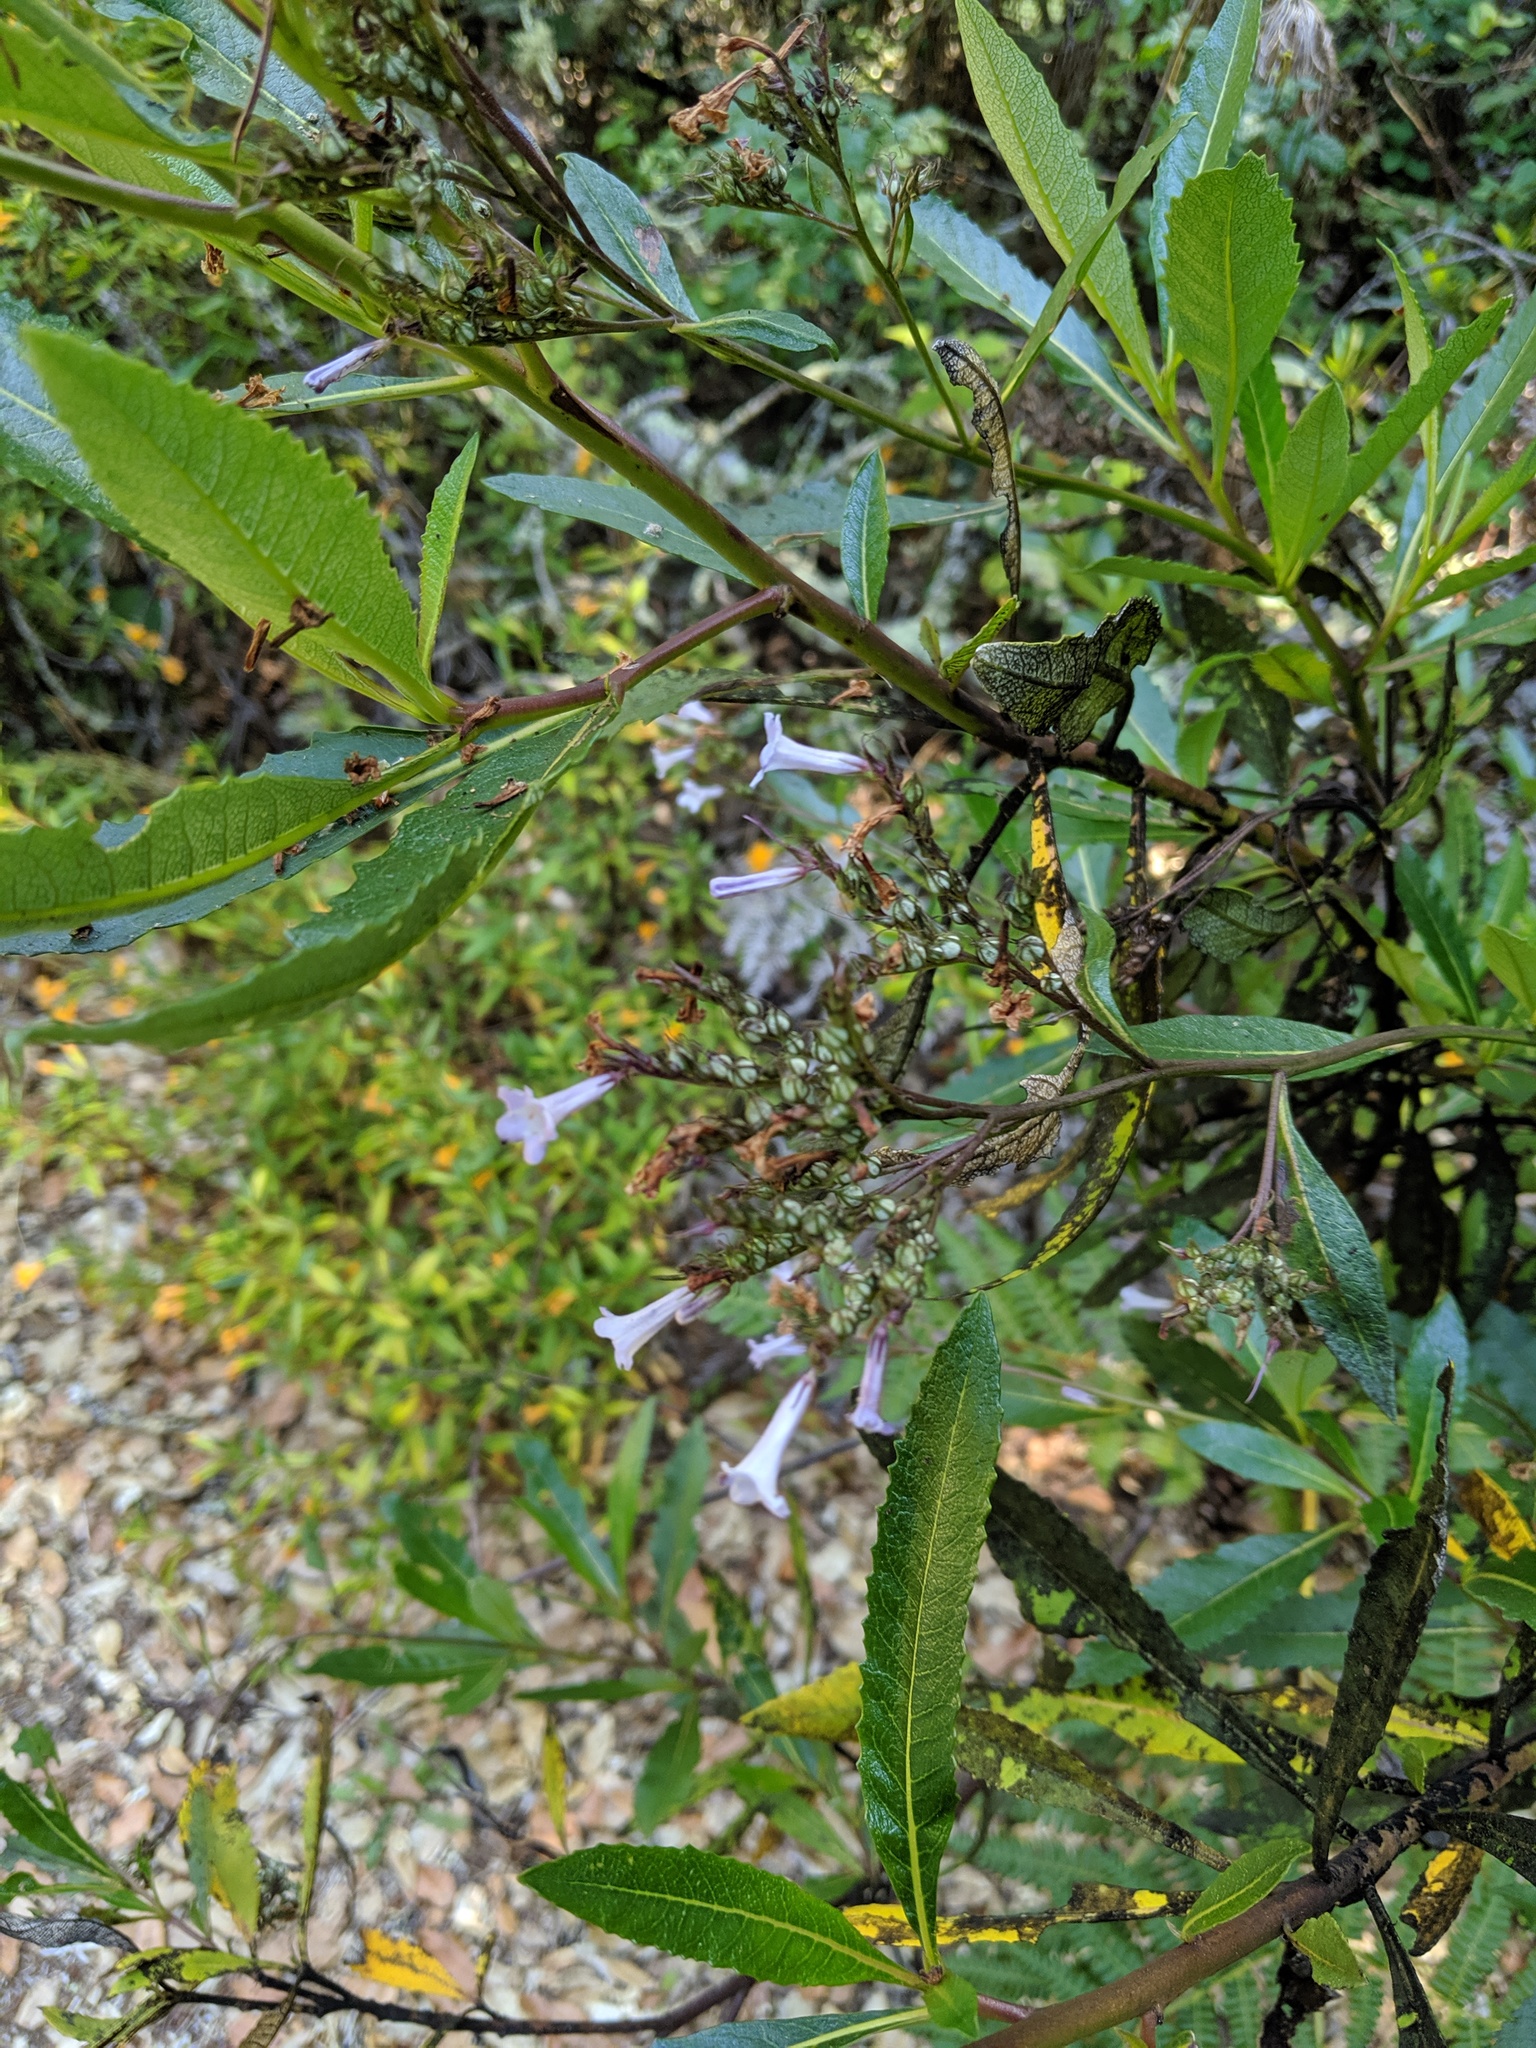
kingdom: Plantae
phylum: Tracheophyta
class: Magnoliopsida
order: Boraginales
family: Namaceae
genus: Eriodictyon
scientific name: Eriodictyon californicum
